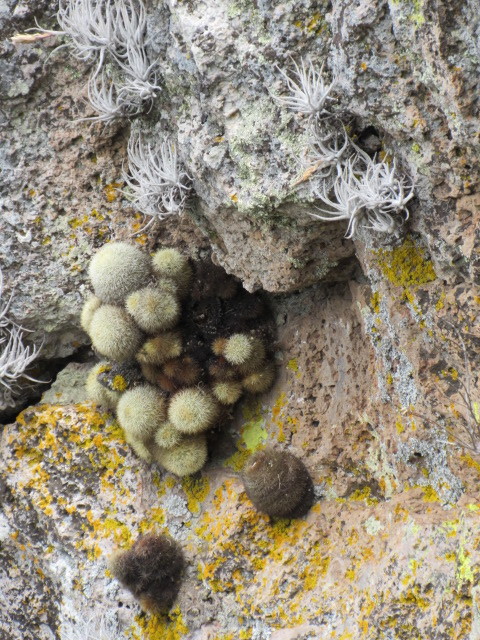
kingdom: Plantae
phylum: Tracheophyta
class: Magnoliopsida
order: Caryophyllales
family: Cactaceae
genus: Mammillaria
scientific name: Mammillaria densispina
